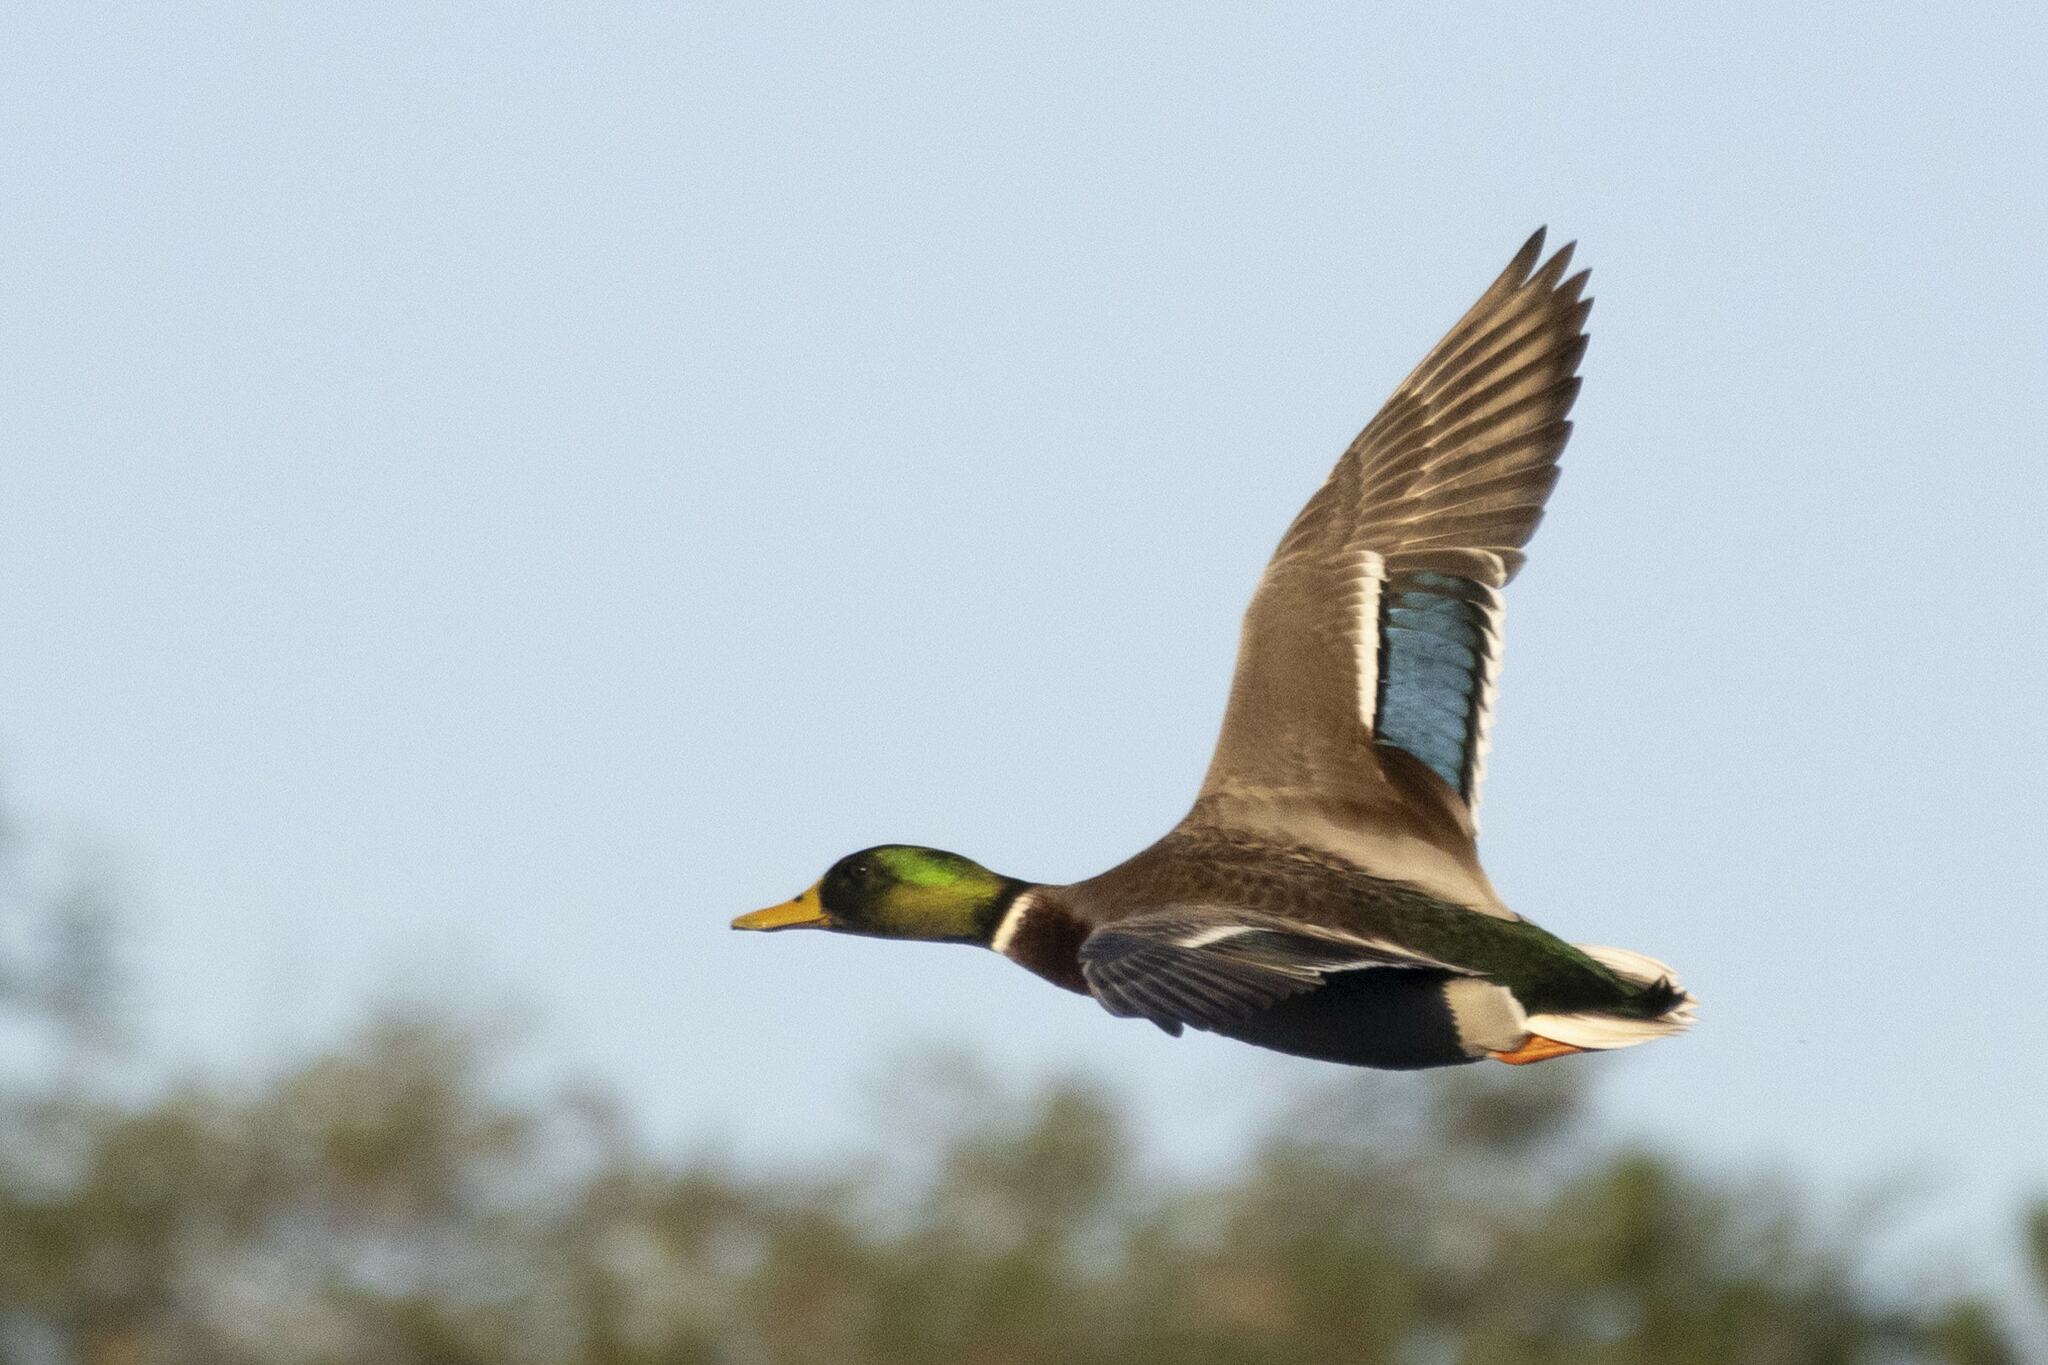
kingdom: Animalia
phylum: Chordata
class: Aves
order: Anseriformes
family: Anatidae
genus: Anas
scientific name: Anas platyrhynchos
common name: Mallard
